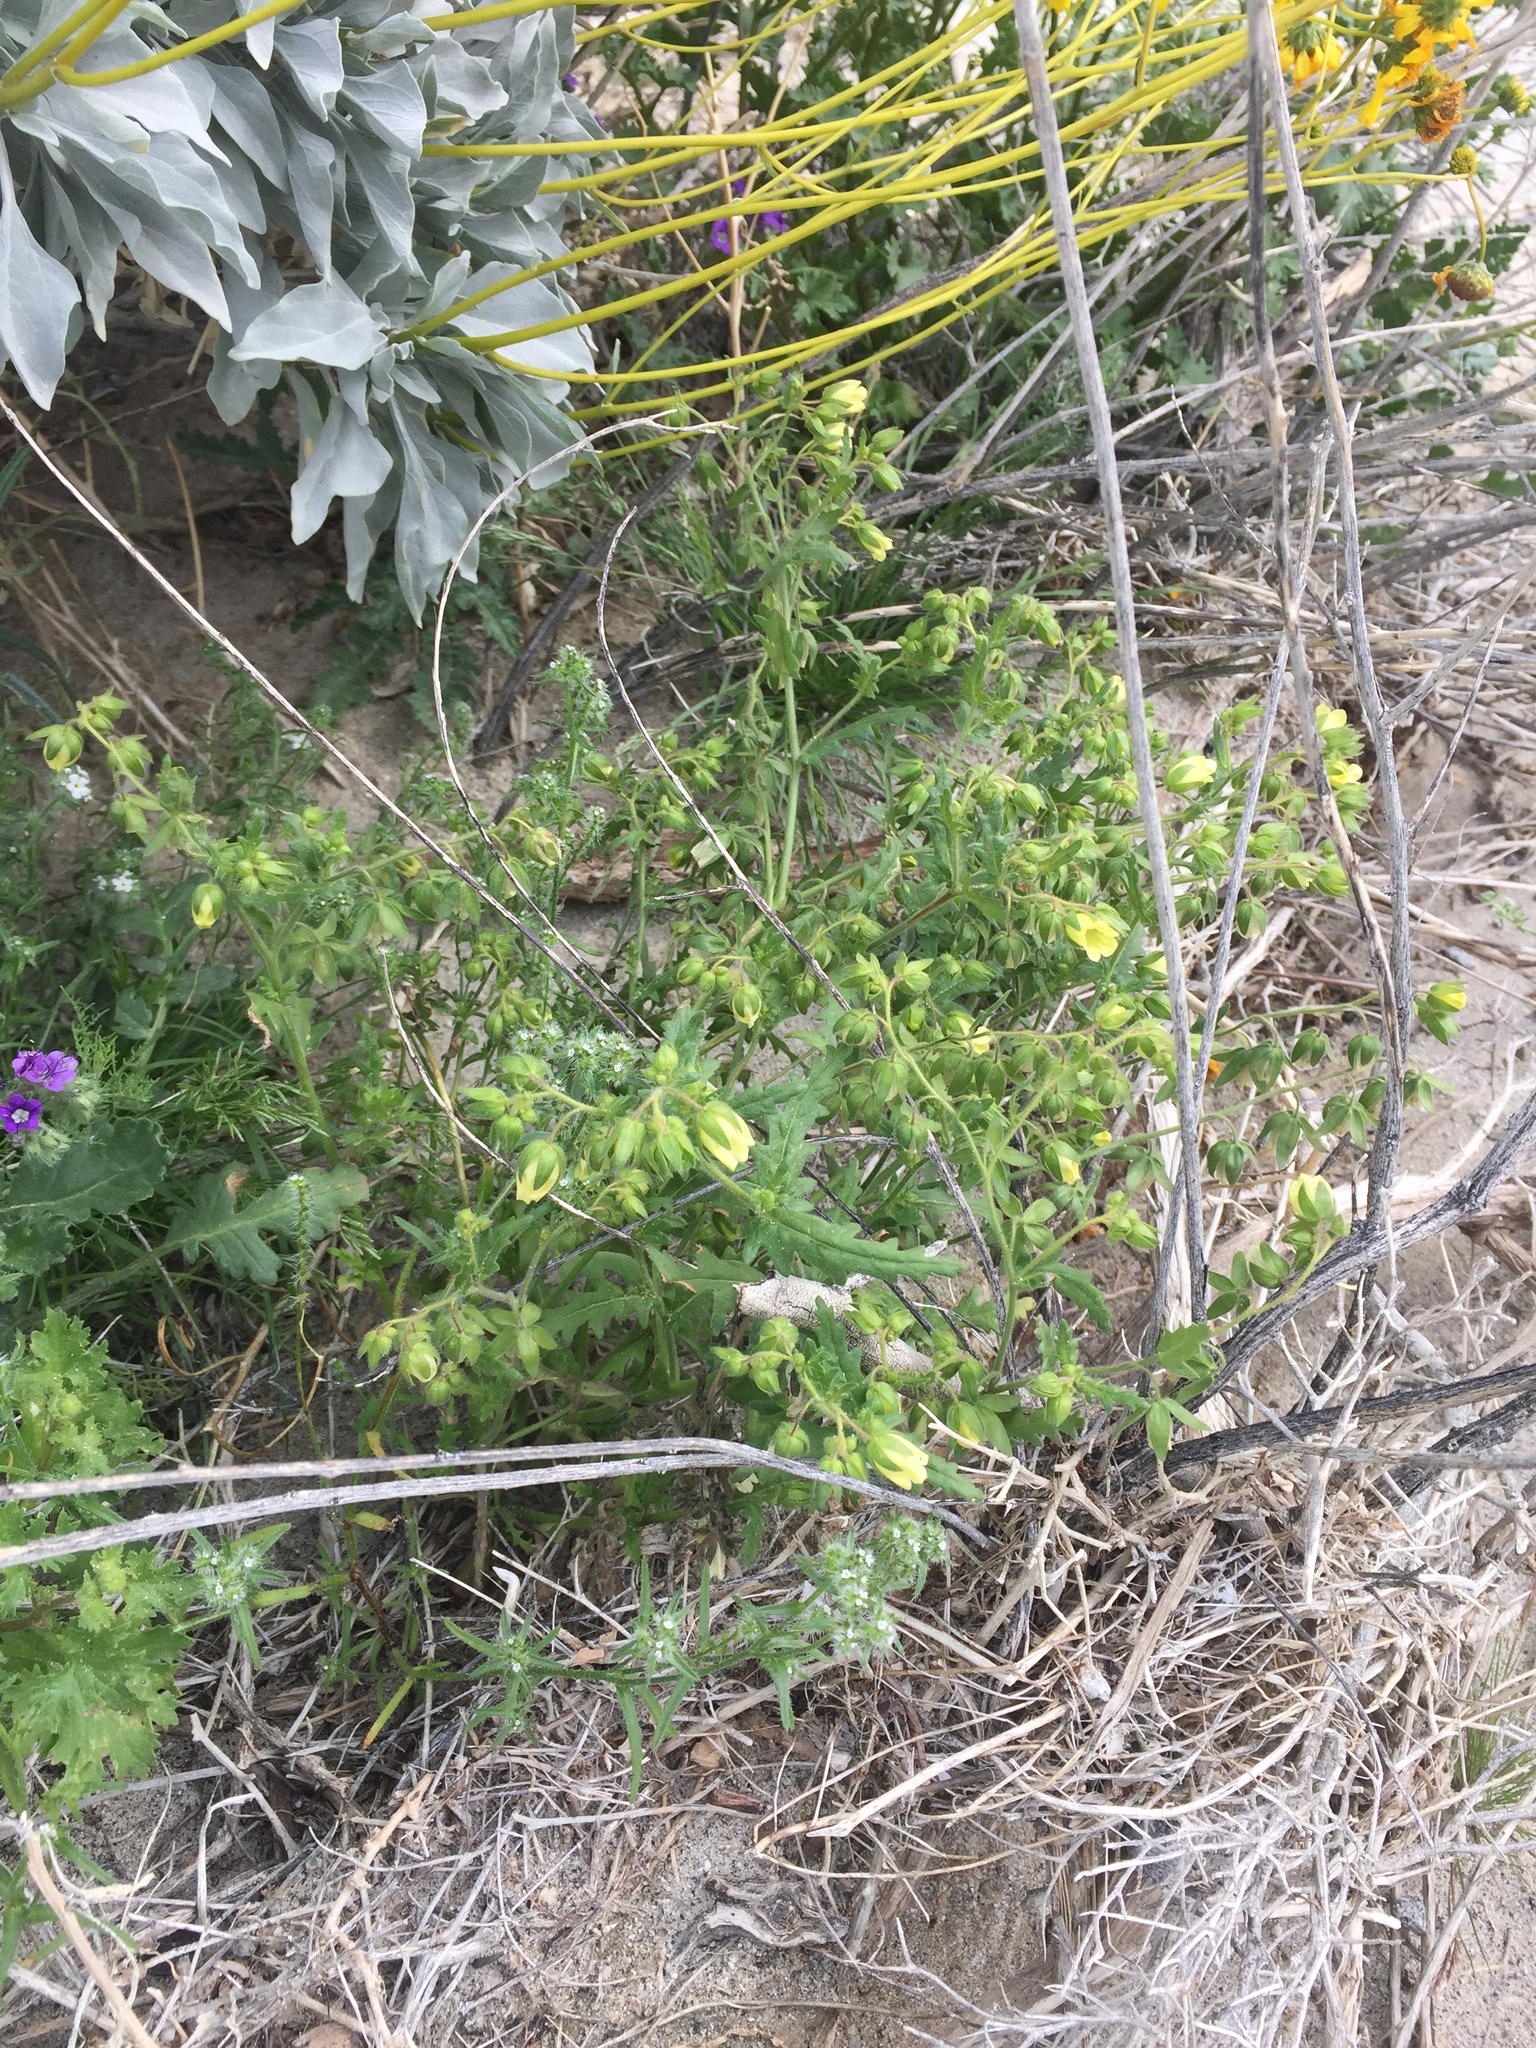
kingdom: Plantae
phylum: Tracheophyta
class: Magnoliopsida
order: Boraginales
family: Hydrophyllaceae
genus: Emmenanthe
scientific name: Emmenanthe penduliflora
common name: Whispering-bells
